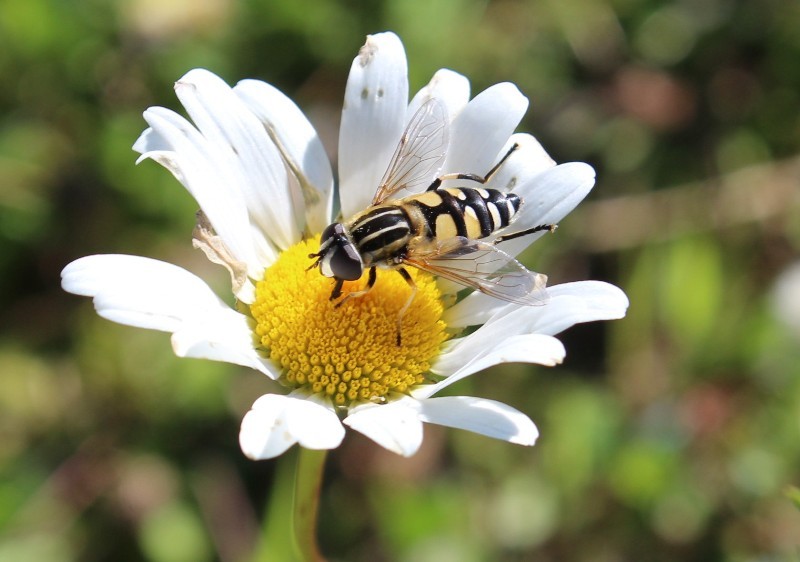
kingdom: Animalia
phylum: Arthropoda
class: Insecta
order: Diptera
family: Syrphidae
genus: Helophilus
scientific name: Helophilus affinis
